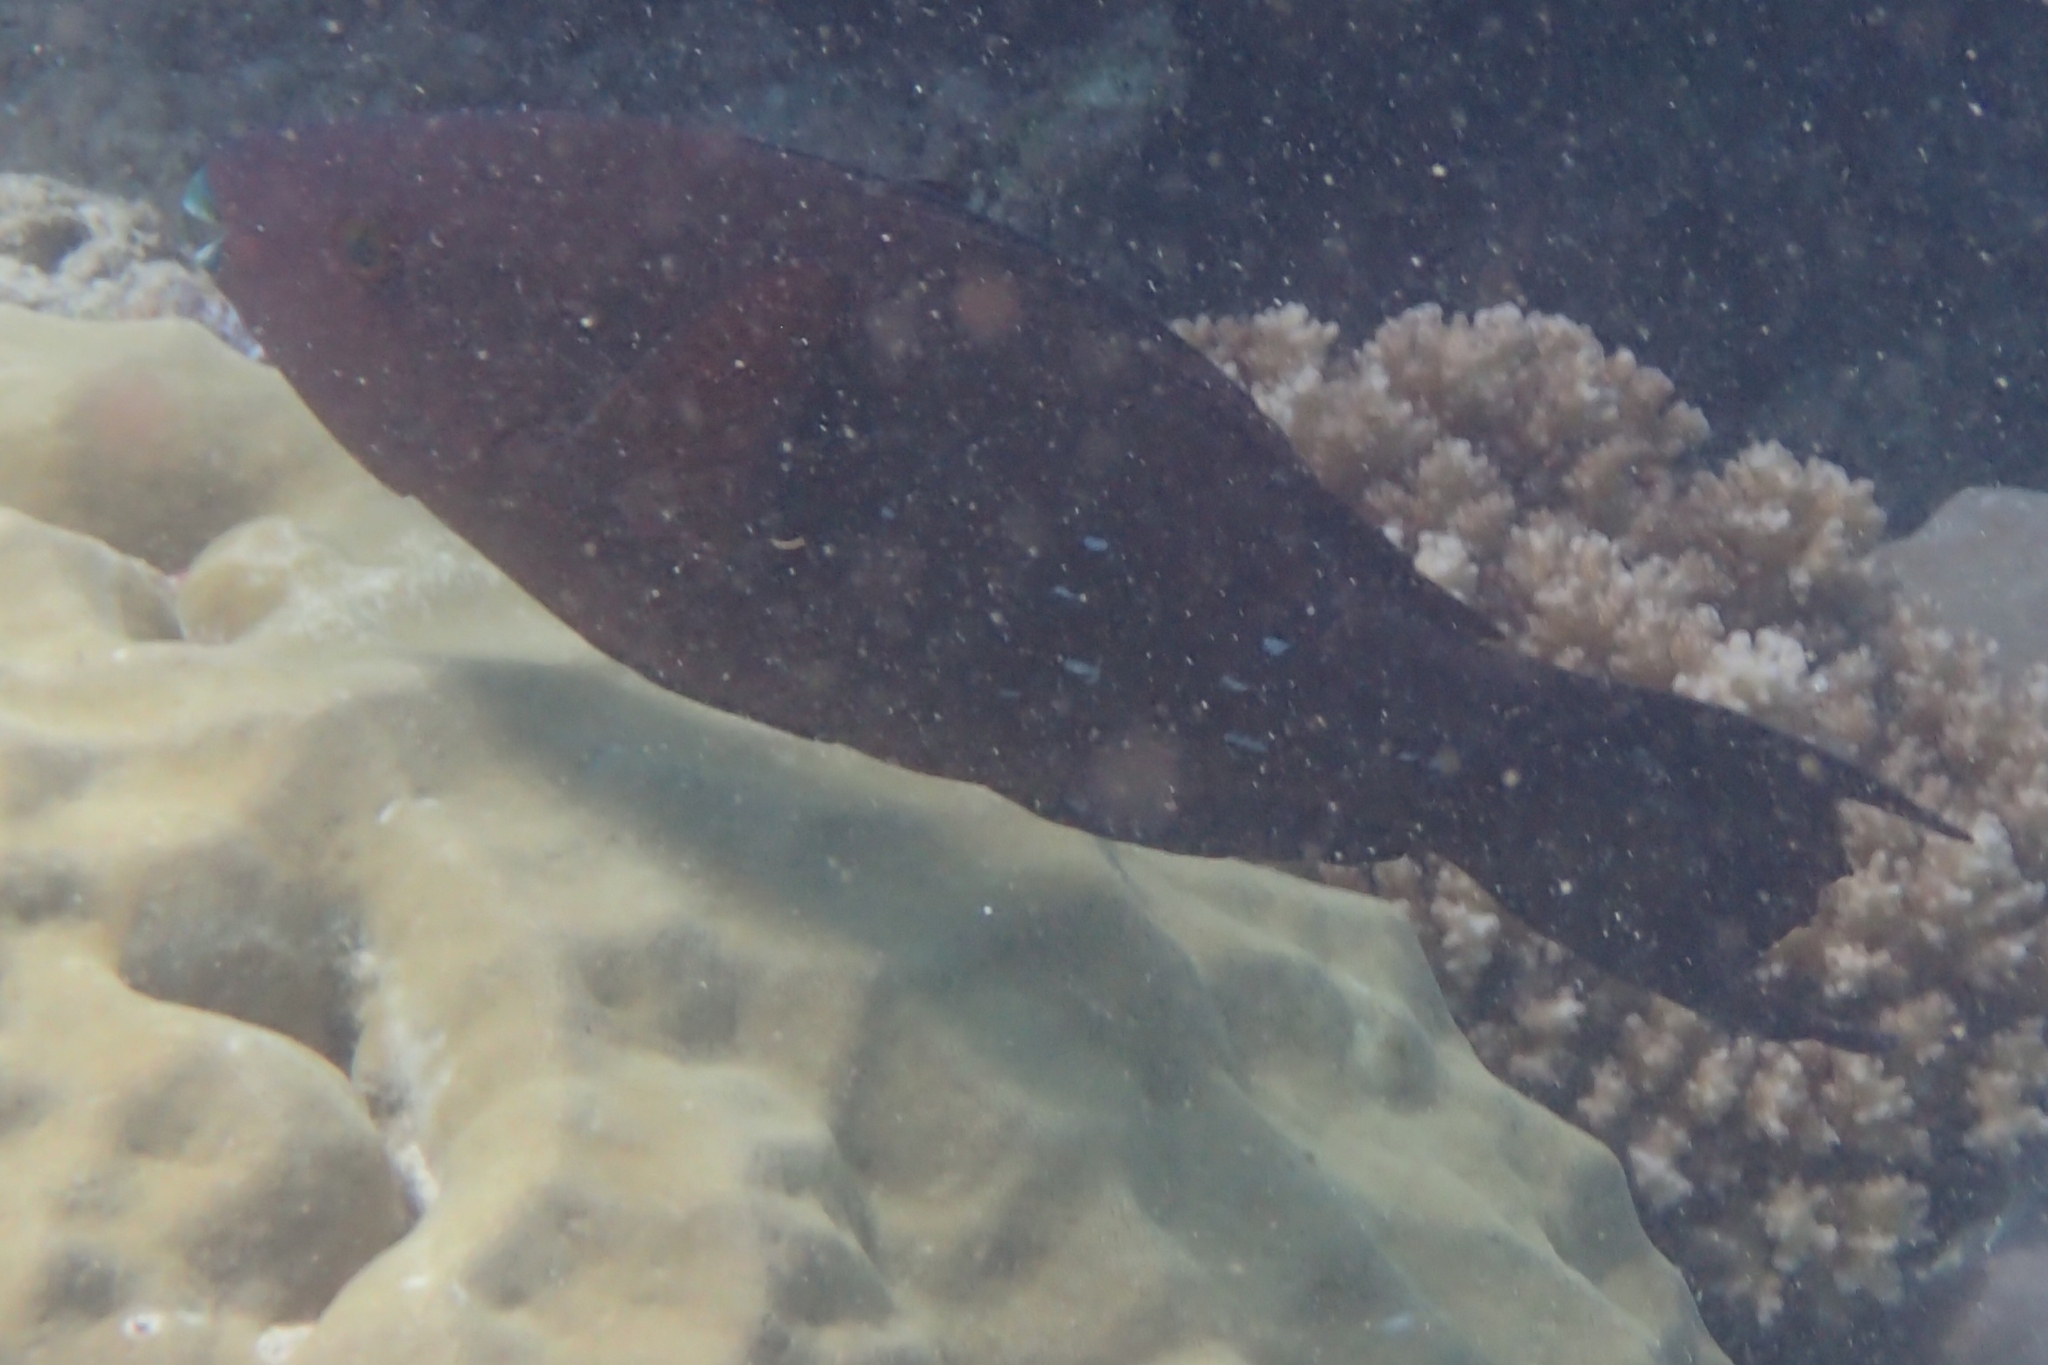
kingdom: Animalia
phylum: Chordata
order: Perciformes
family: Scaridae
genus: Scarus
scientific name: Scarus altipinnis
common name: Minifin parrotfish
